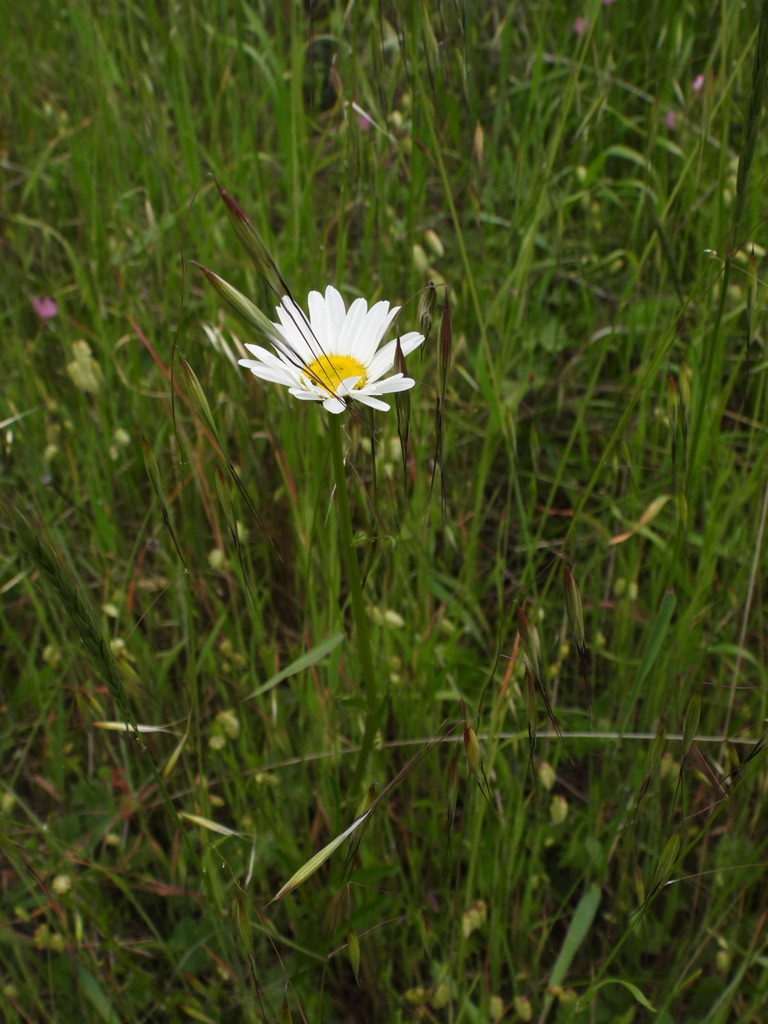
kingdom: Plantae
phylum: Tracheophyta
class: Magnoliopsida
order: Asterales
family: Asteraceae
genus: Leucanthemum
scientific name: Leucanthemum vulgare
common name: Oxeye daisy
